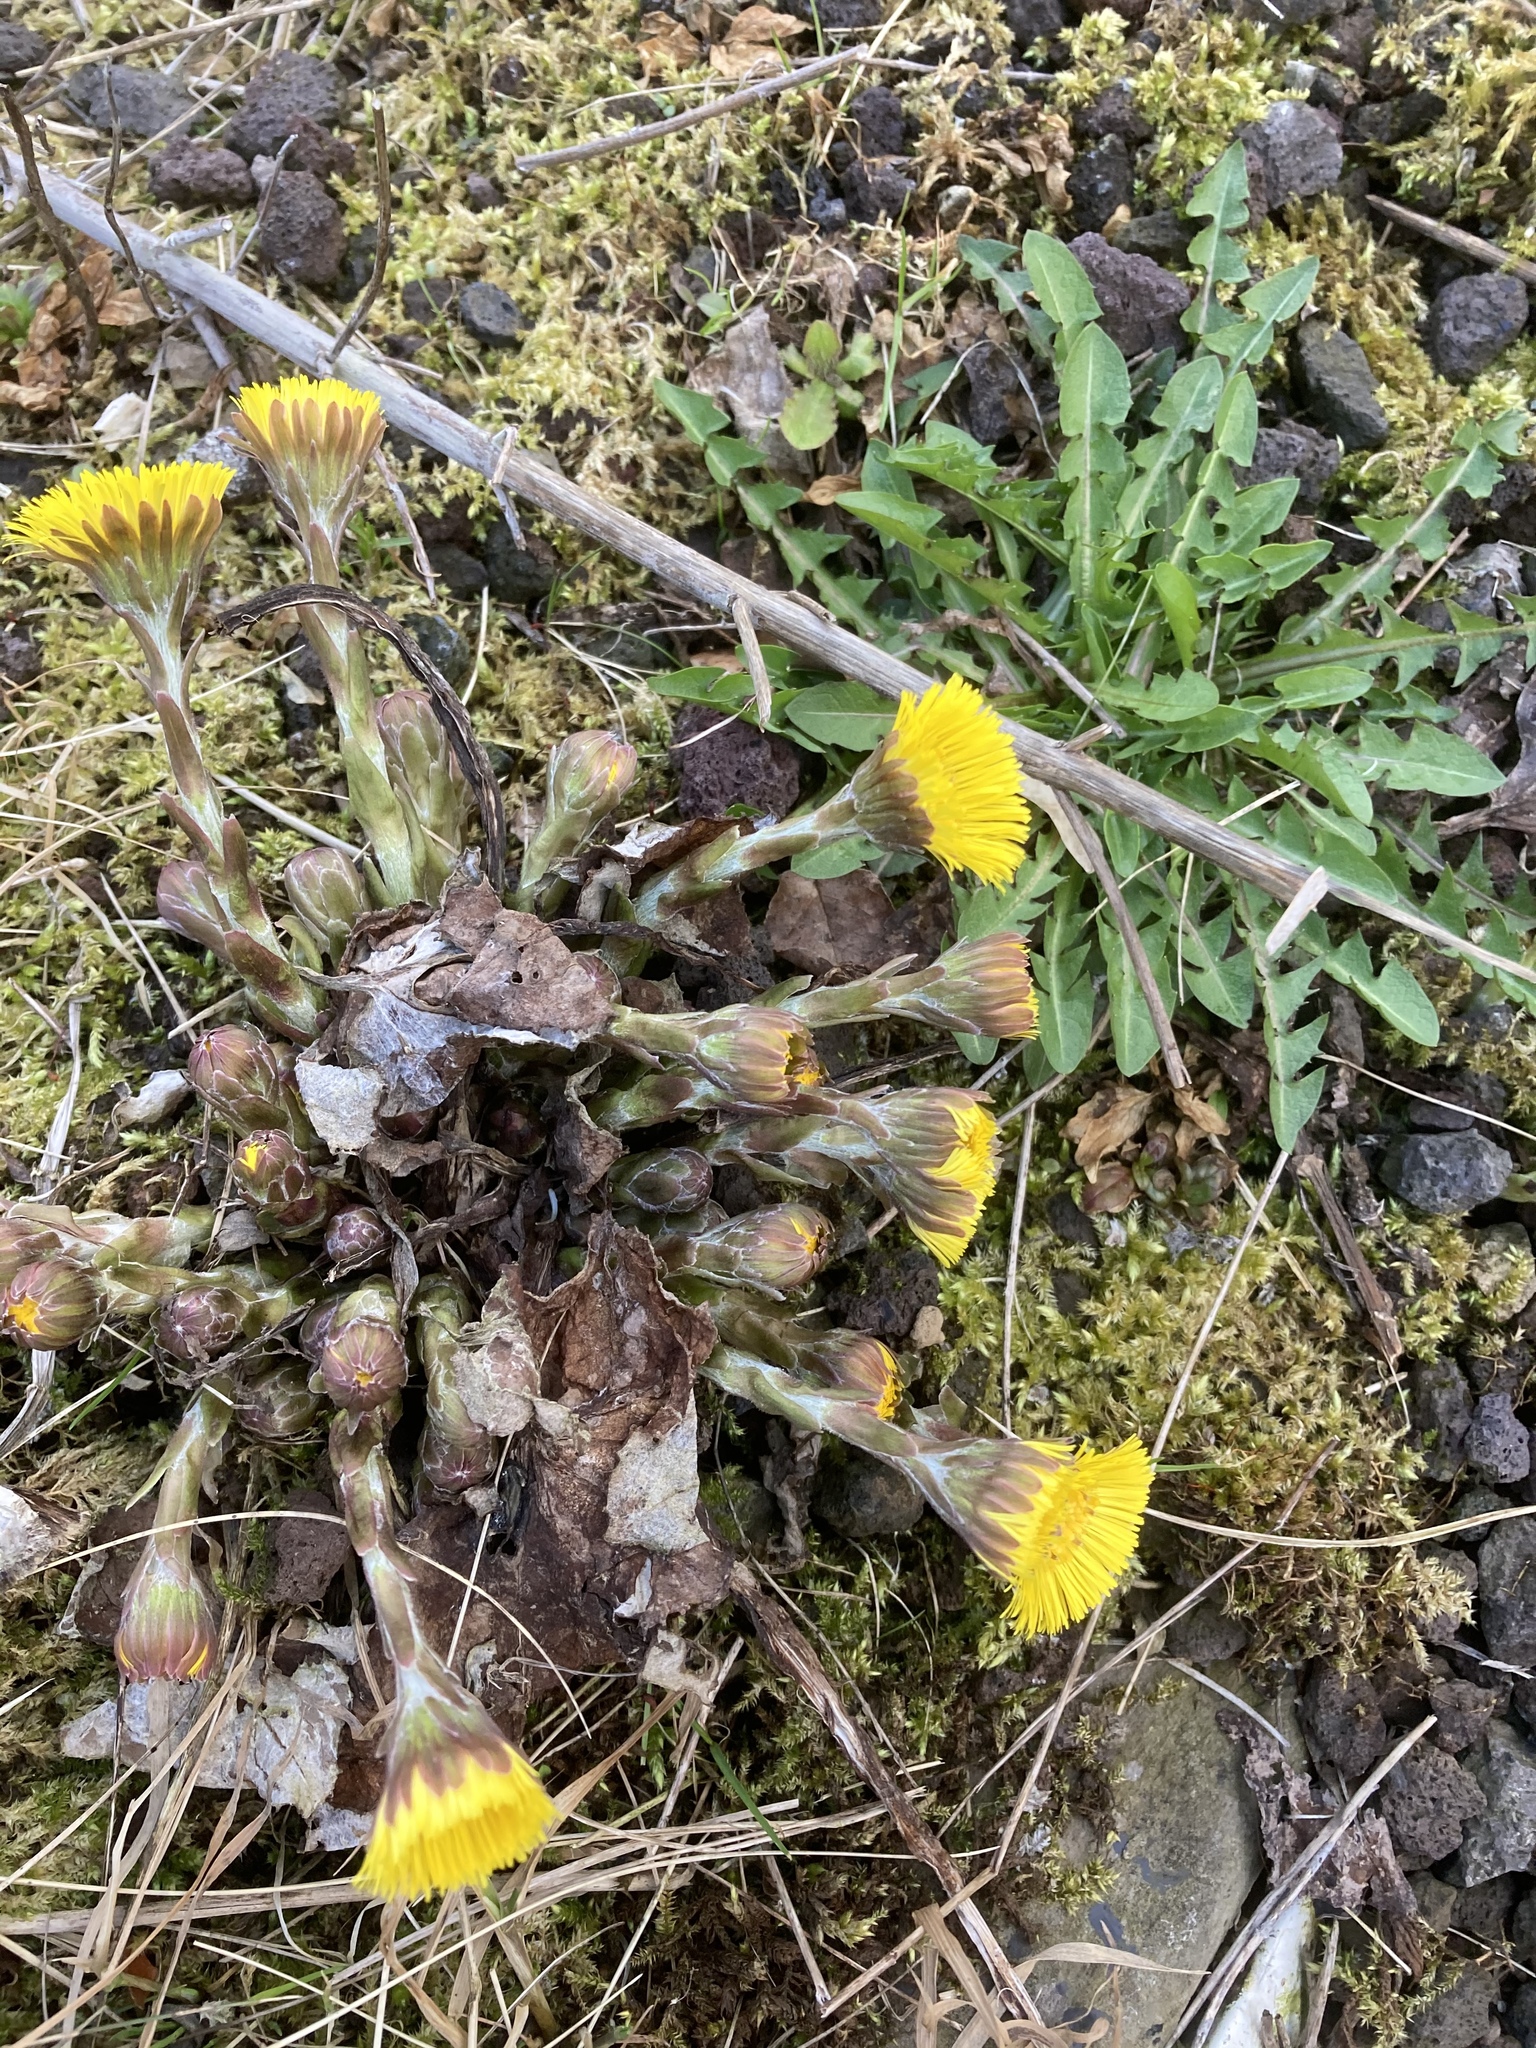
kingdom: Plantae
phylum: Tracheophyta
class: Magnoliopsida
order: Asterales
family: Asteraceae
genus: Tussilago
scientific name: Tussilago farfara
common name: Coltsfoot
